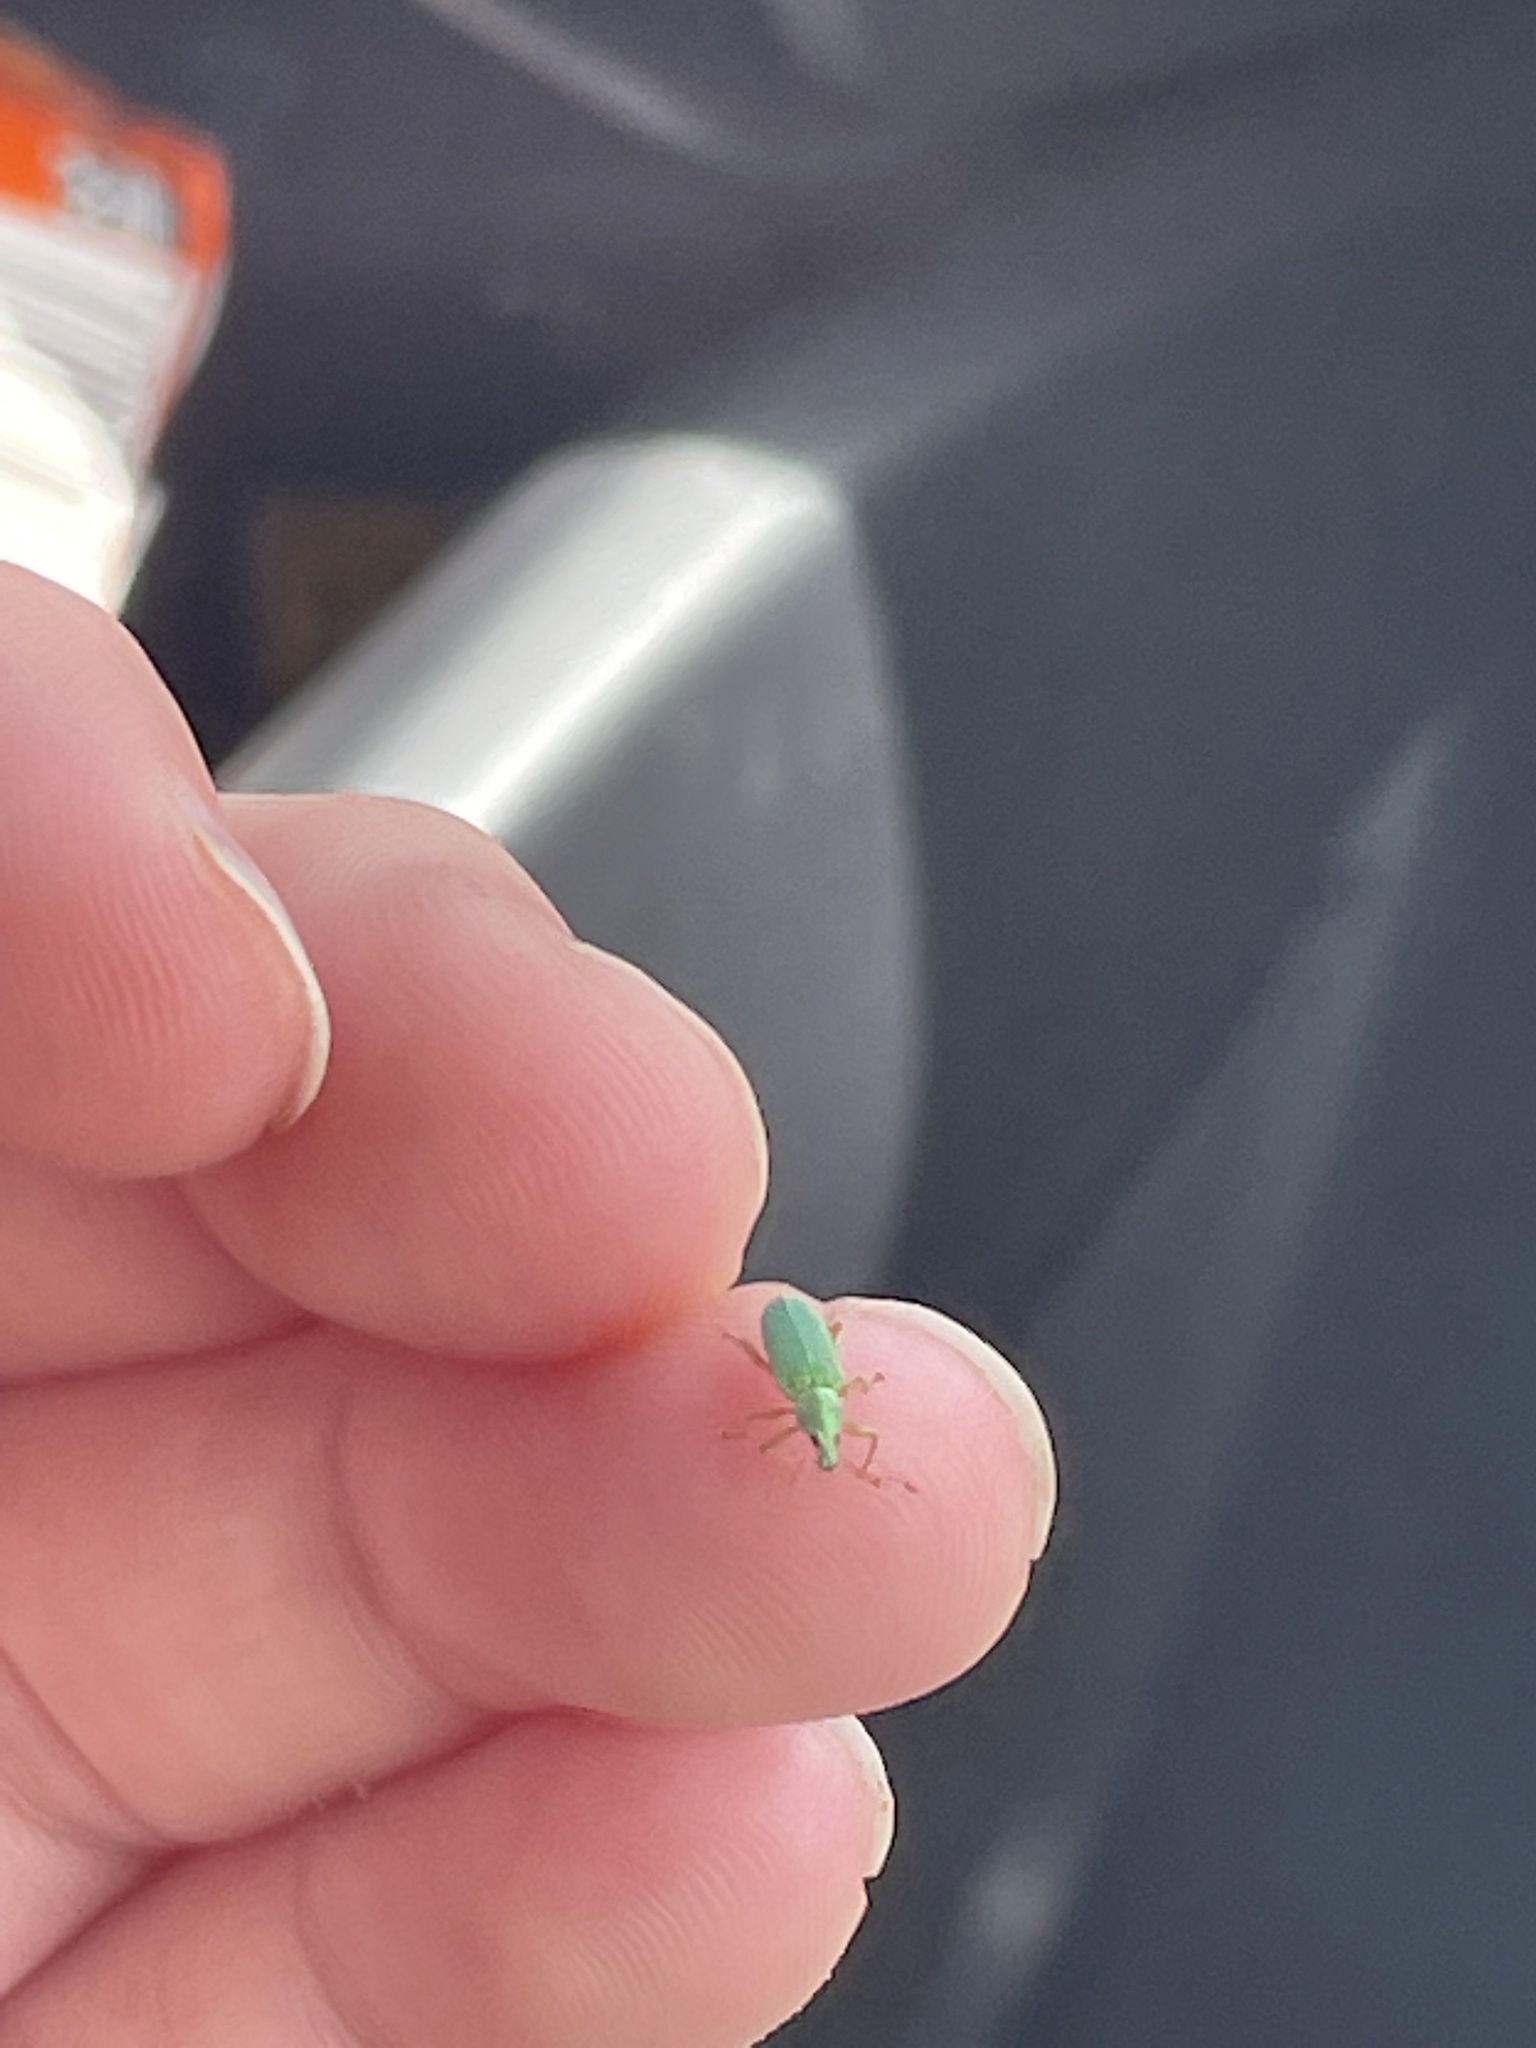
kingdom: Animalia
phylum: Arthropoda
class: Insecta
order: Coleoptera
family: Curculionidae
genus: Polydrusus
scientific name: Polydrusus formosus
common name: Weevil
